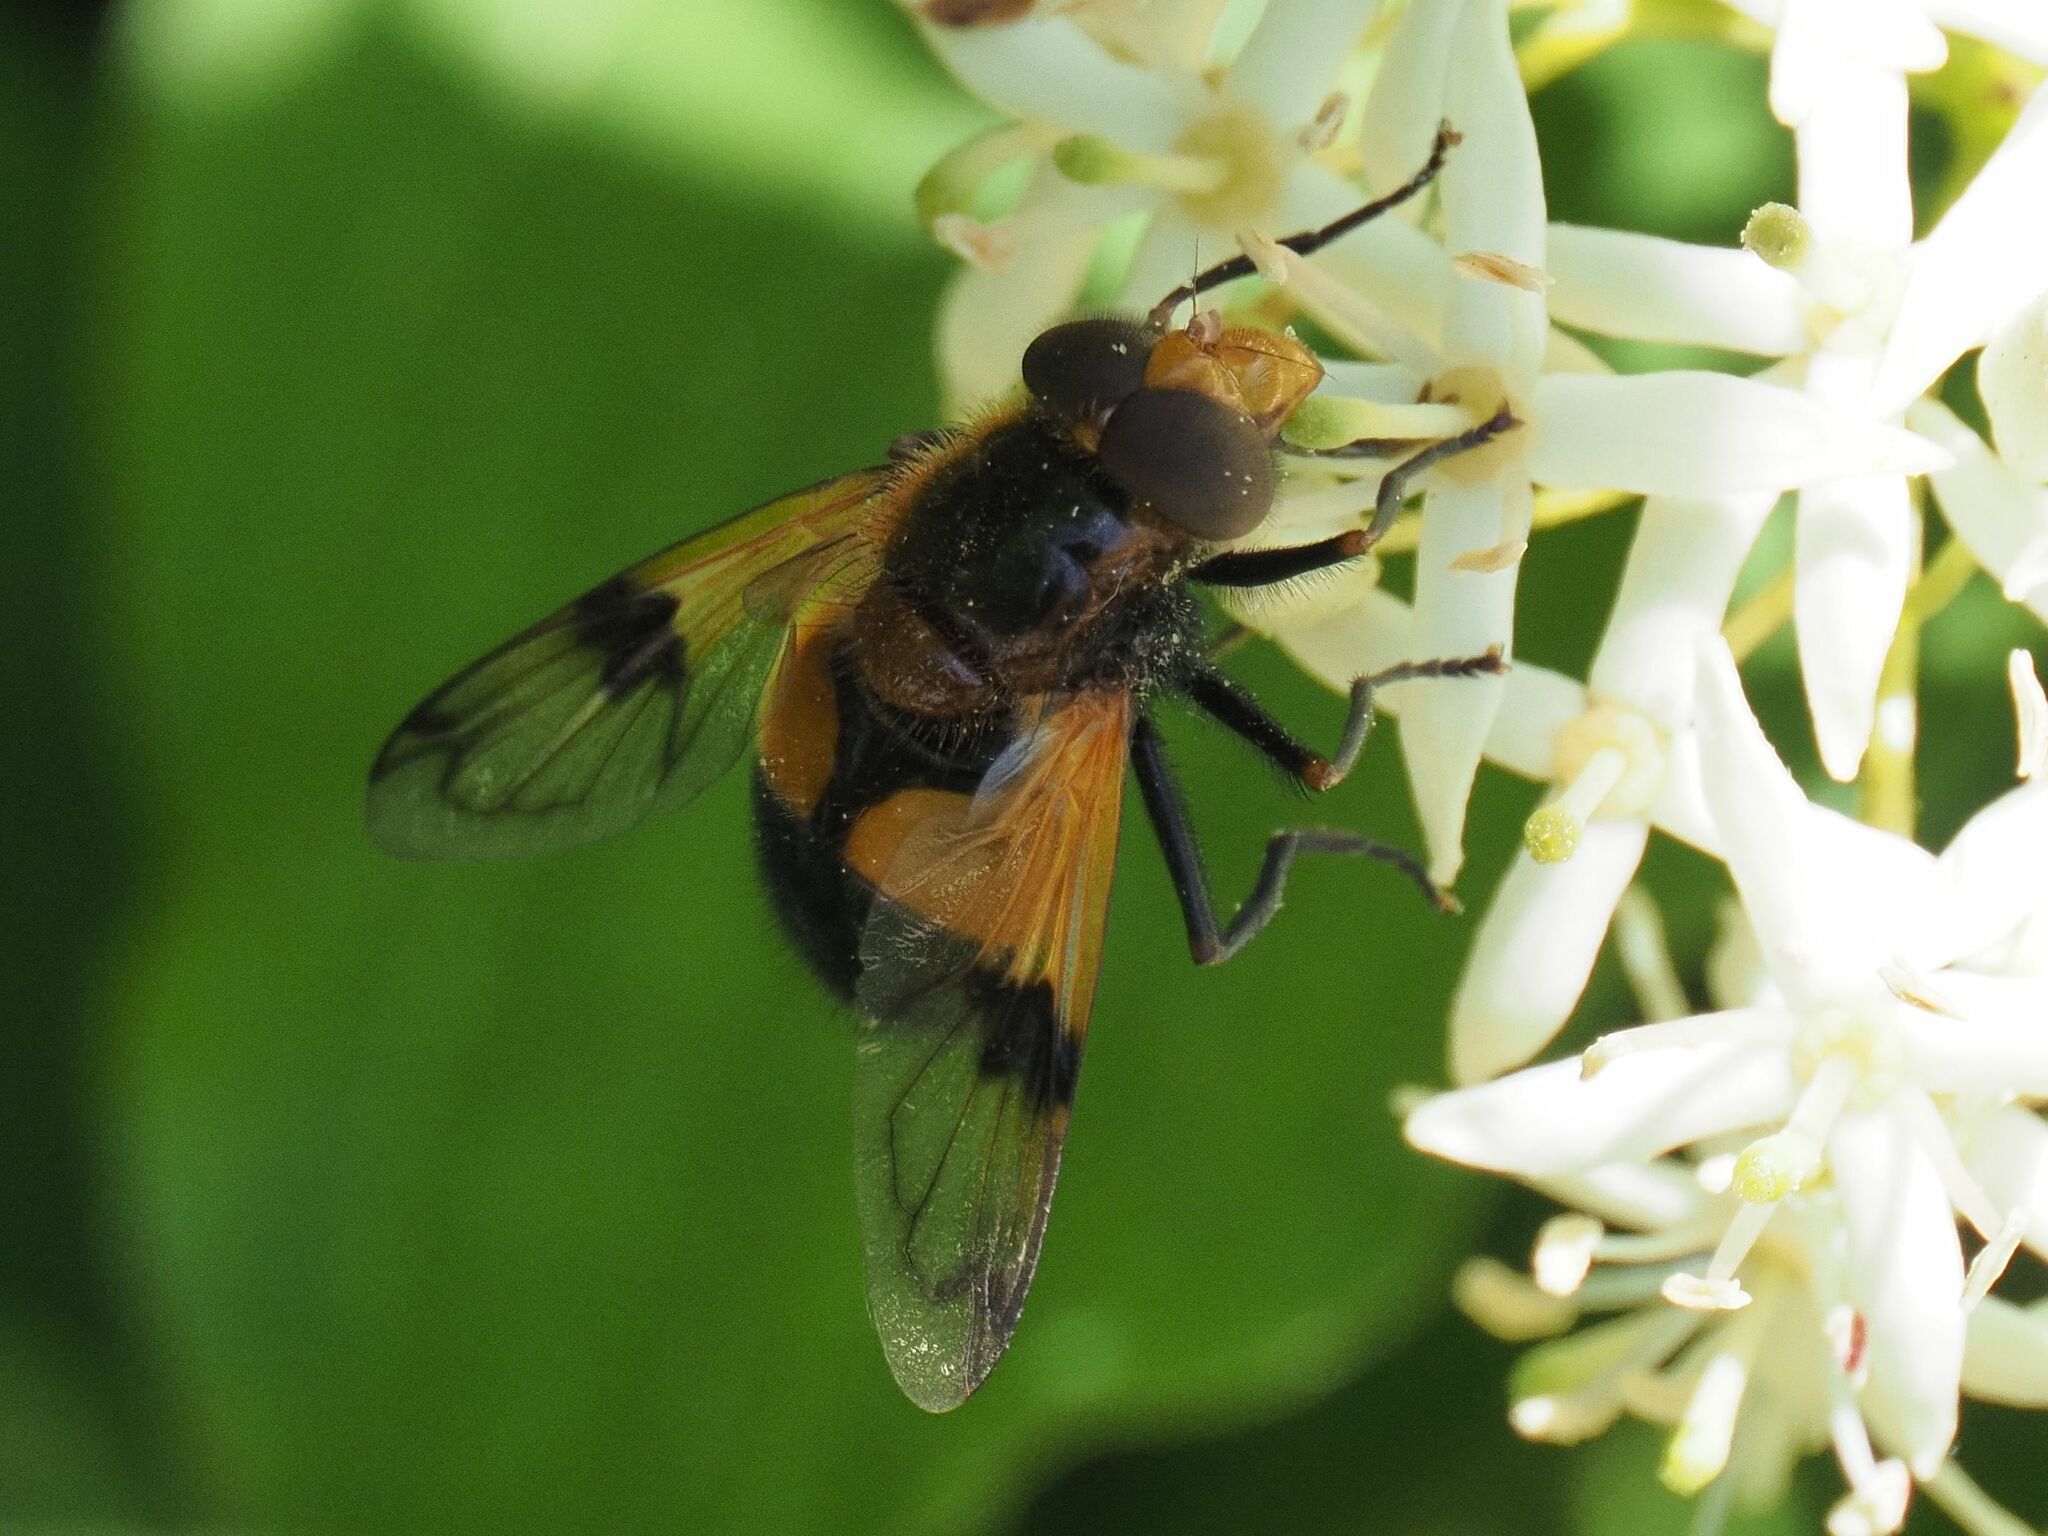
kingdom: Animalia
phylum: Arthropoda
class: Insecta
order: Diptera
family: Syrphidae
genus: Volucella
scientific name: Volucella inflata
